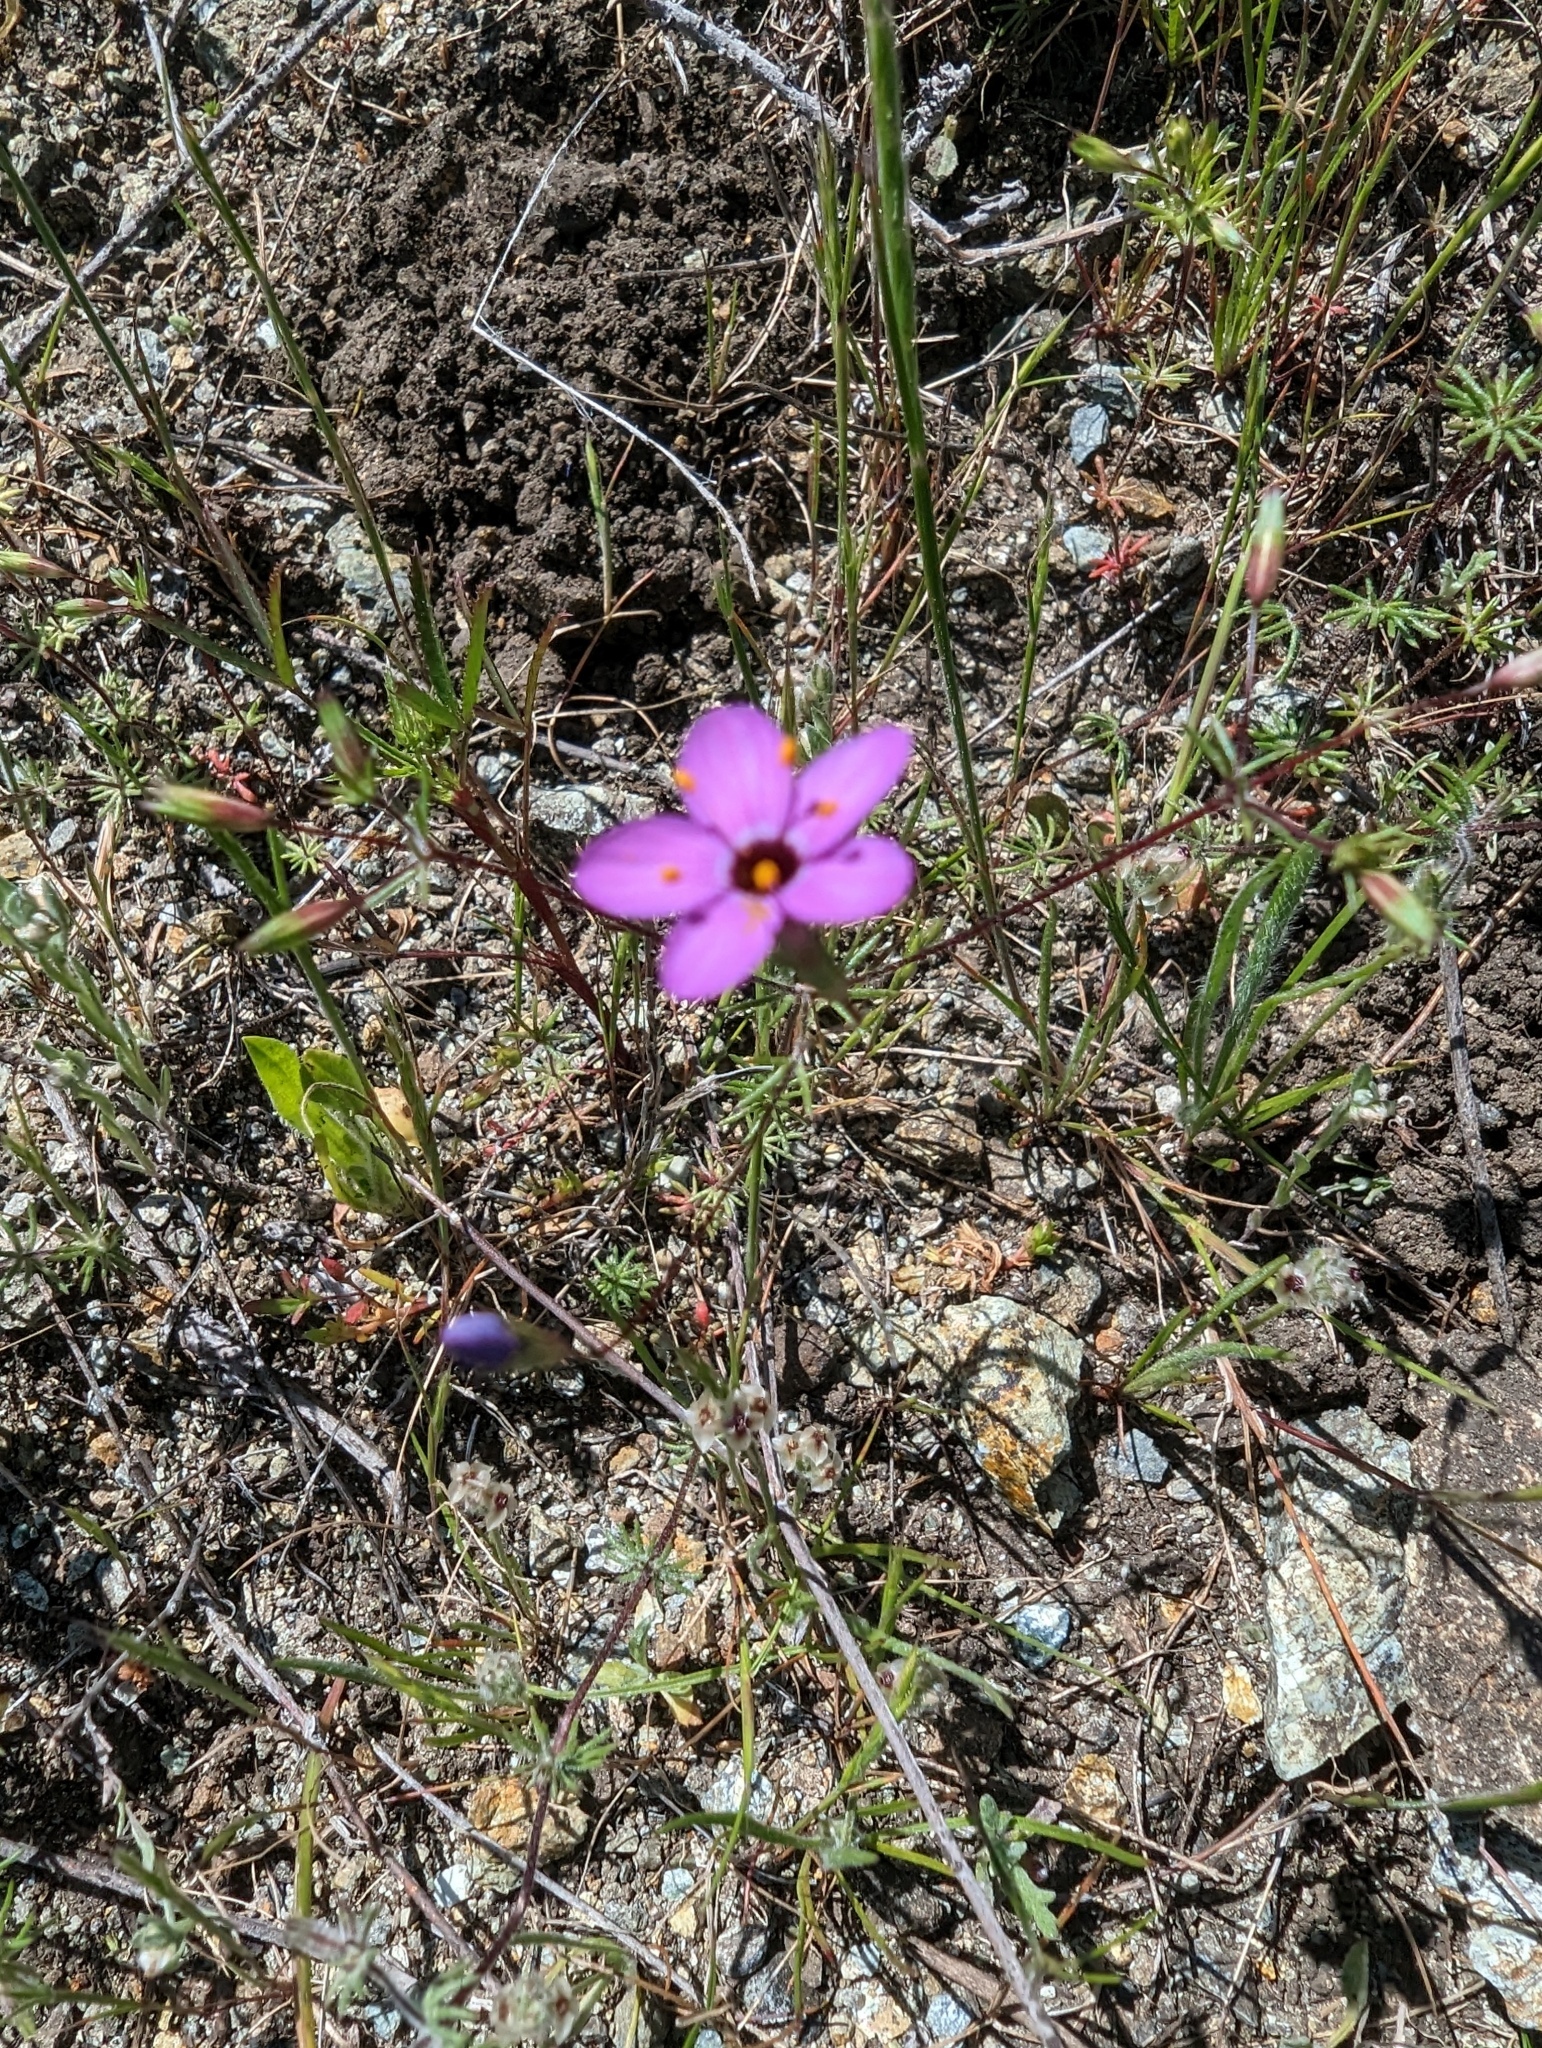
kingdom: Plantae
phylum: Tracheophyta
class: Magnoliopsida
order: Ericales
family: Polemoniaceae
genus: Leptosiphon
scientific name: Leptosiphon ambiguus
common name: Serpentine linanthus
